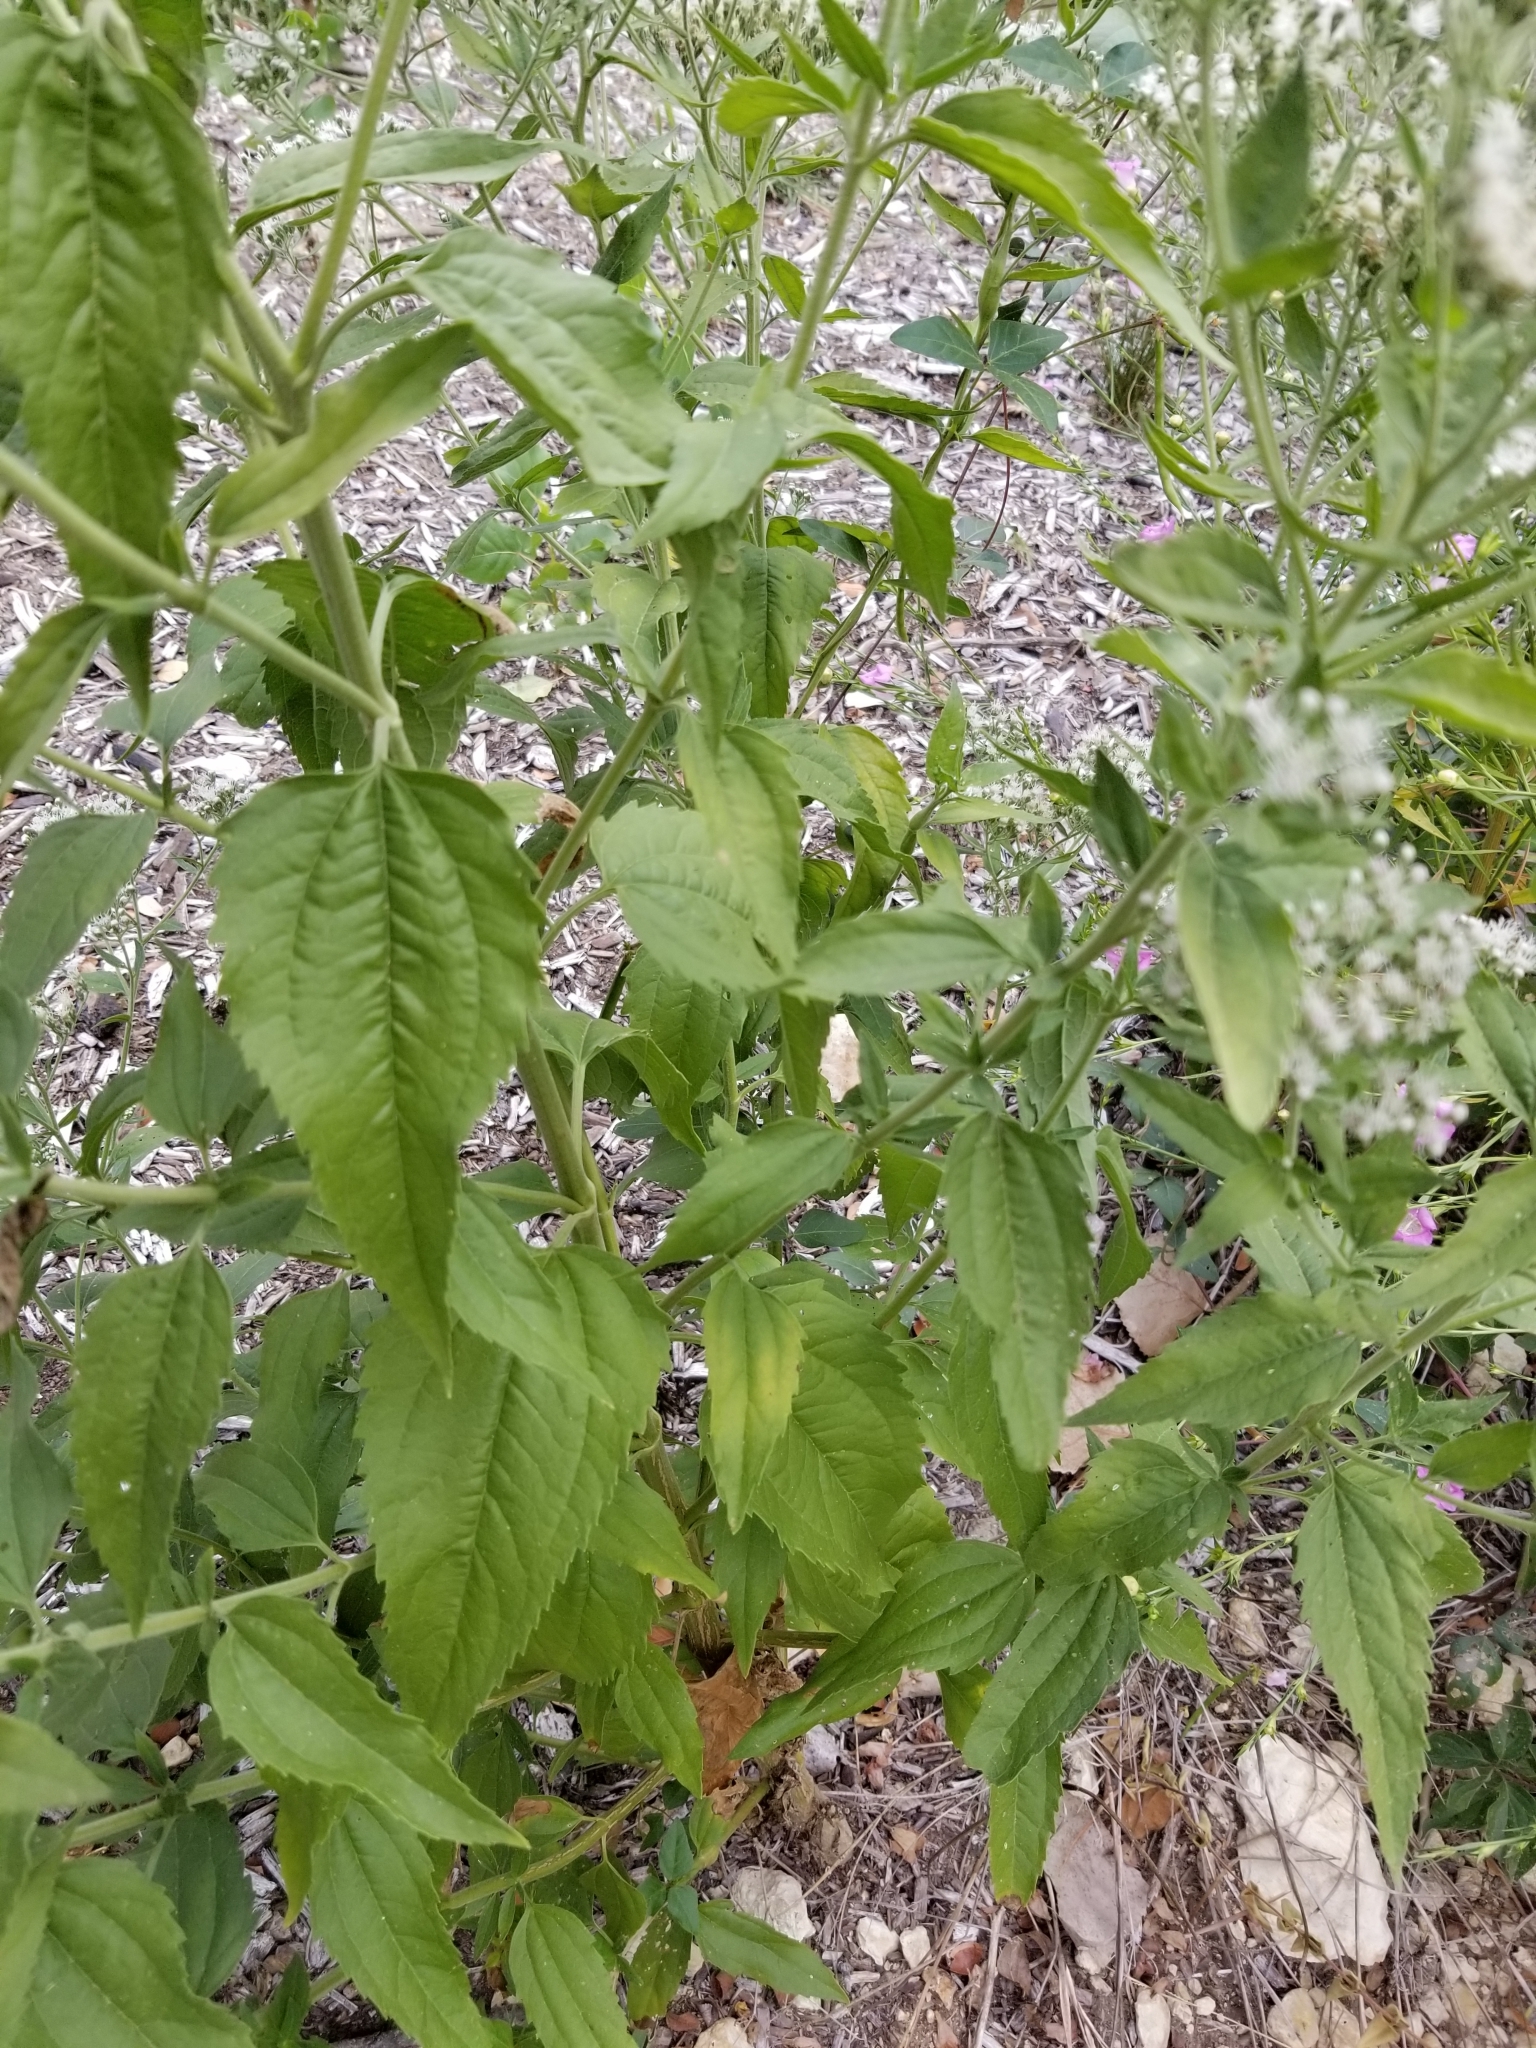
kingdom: Plantae
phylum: Tracheophyta
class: Magnoliopsida
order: Asterales
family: Asteraceae
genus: Eupatorium
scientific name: Eupatorium serotinum
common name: Late boneset
